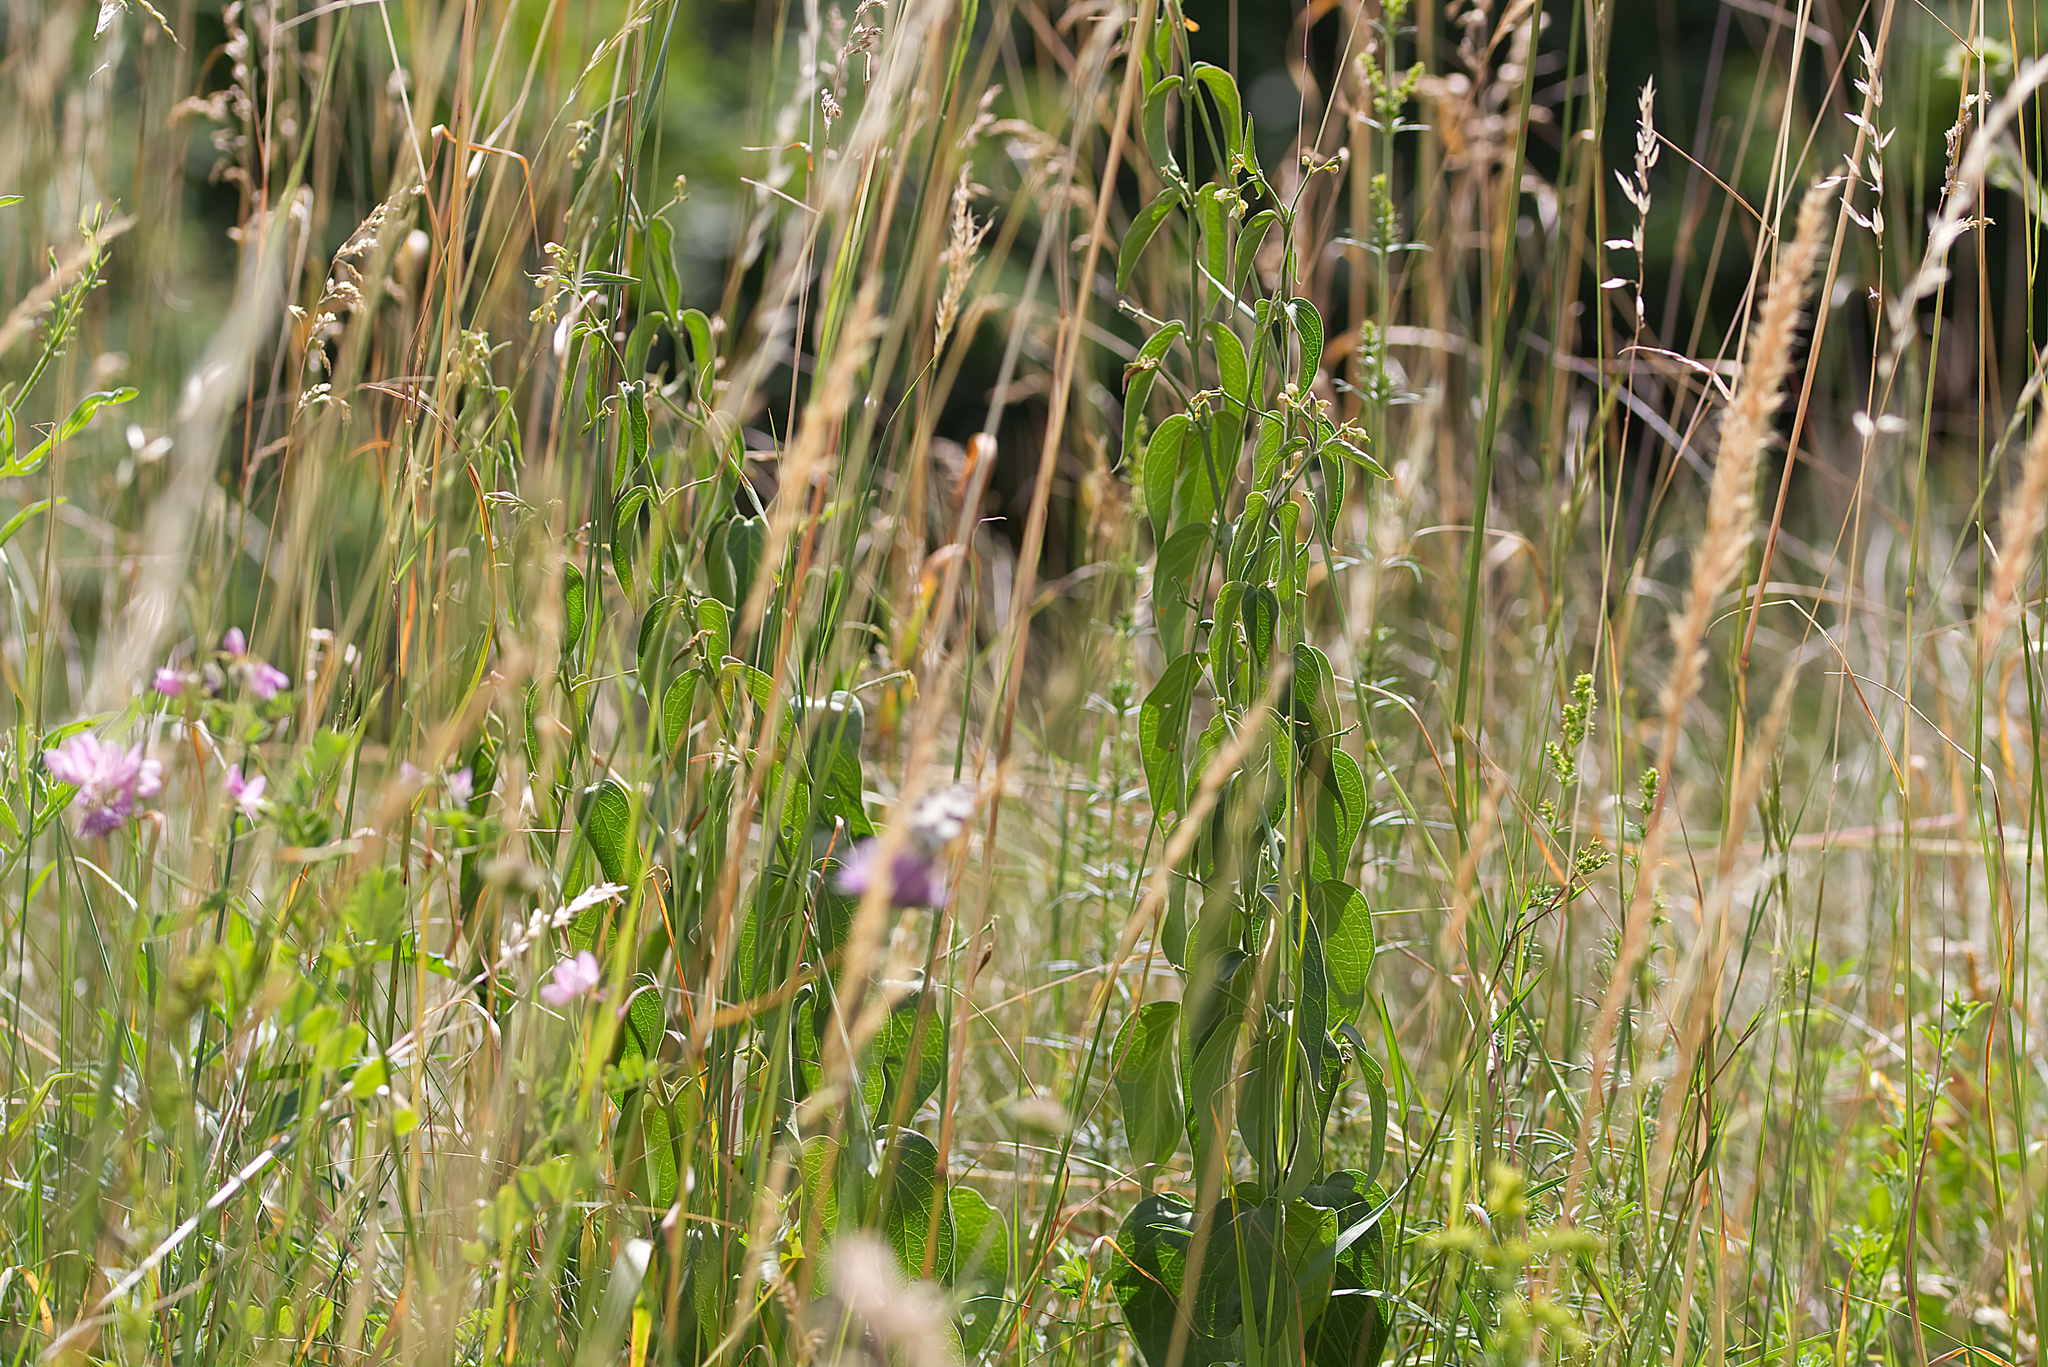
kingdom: Plantae
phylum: Tracheophyta
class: Magnoliopsida
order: Gentianales
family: Apocynaceae
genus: Vincetoxicum
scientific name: Vincetoxicum hirundinaria
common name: White swallowwort
